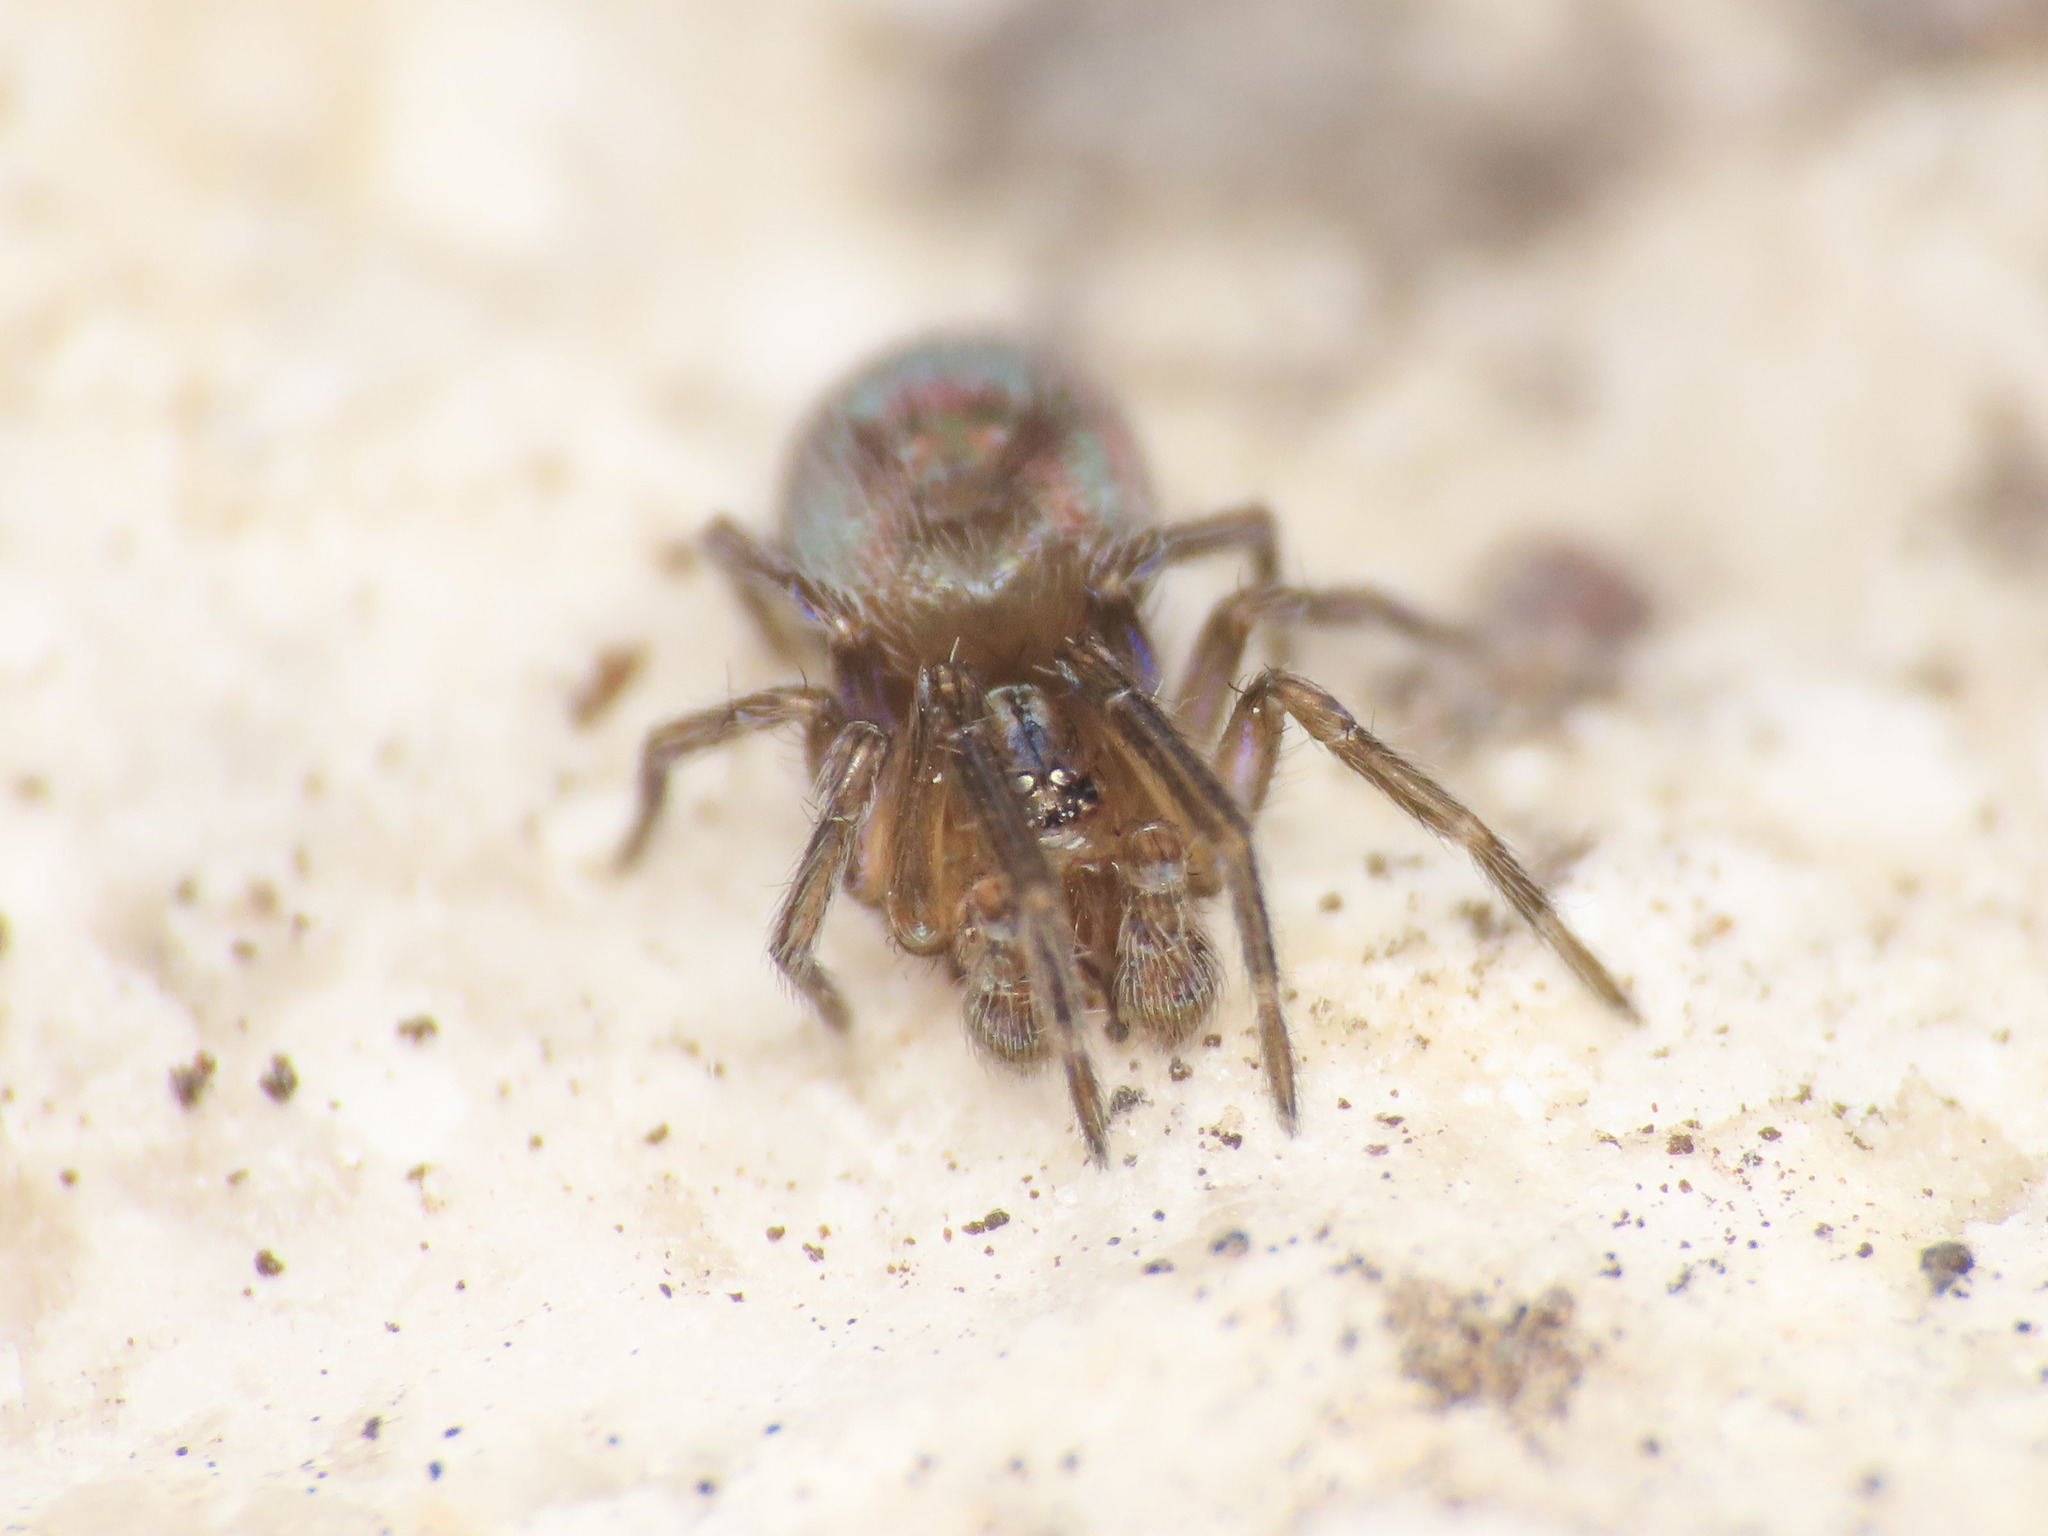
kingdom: Animalia
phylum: Arthropoda
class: Arachnida
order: Araneae
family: Dictynidae
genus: Lathys
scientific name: Lathys stigmatisata
